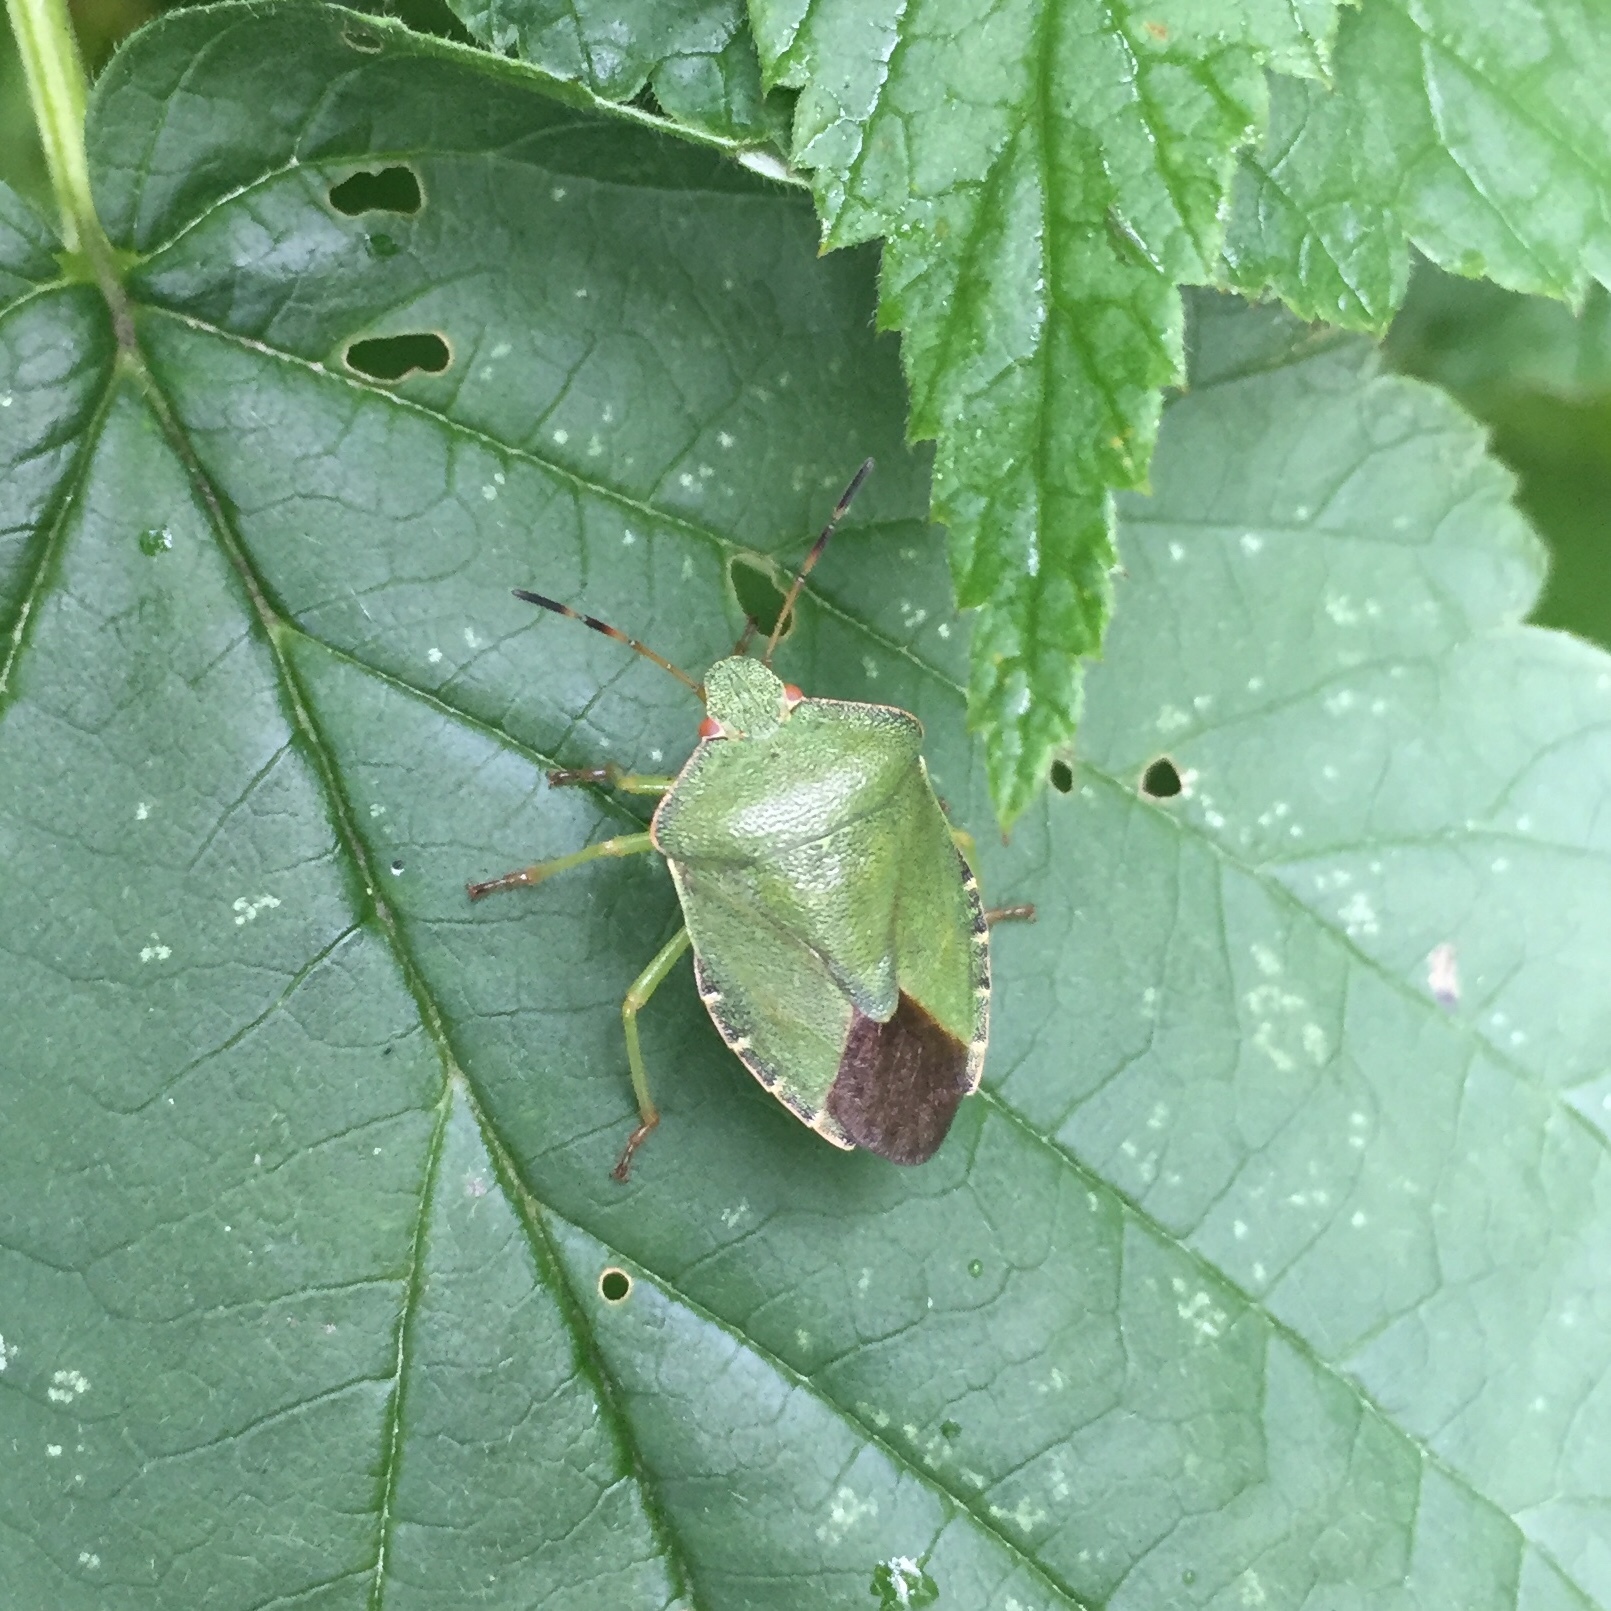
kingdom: Animalia
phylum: Arthropoda
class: Insecta
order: Hemiptera
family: Pentatomidae
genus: Palomena
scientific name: Palomena prasina
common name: Green shieldbug
